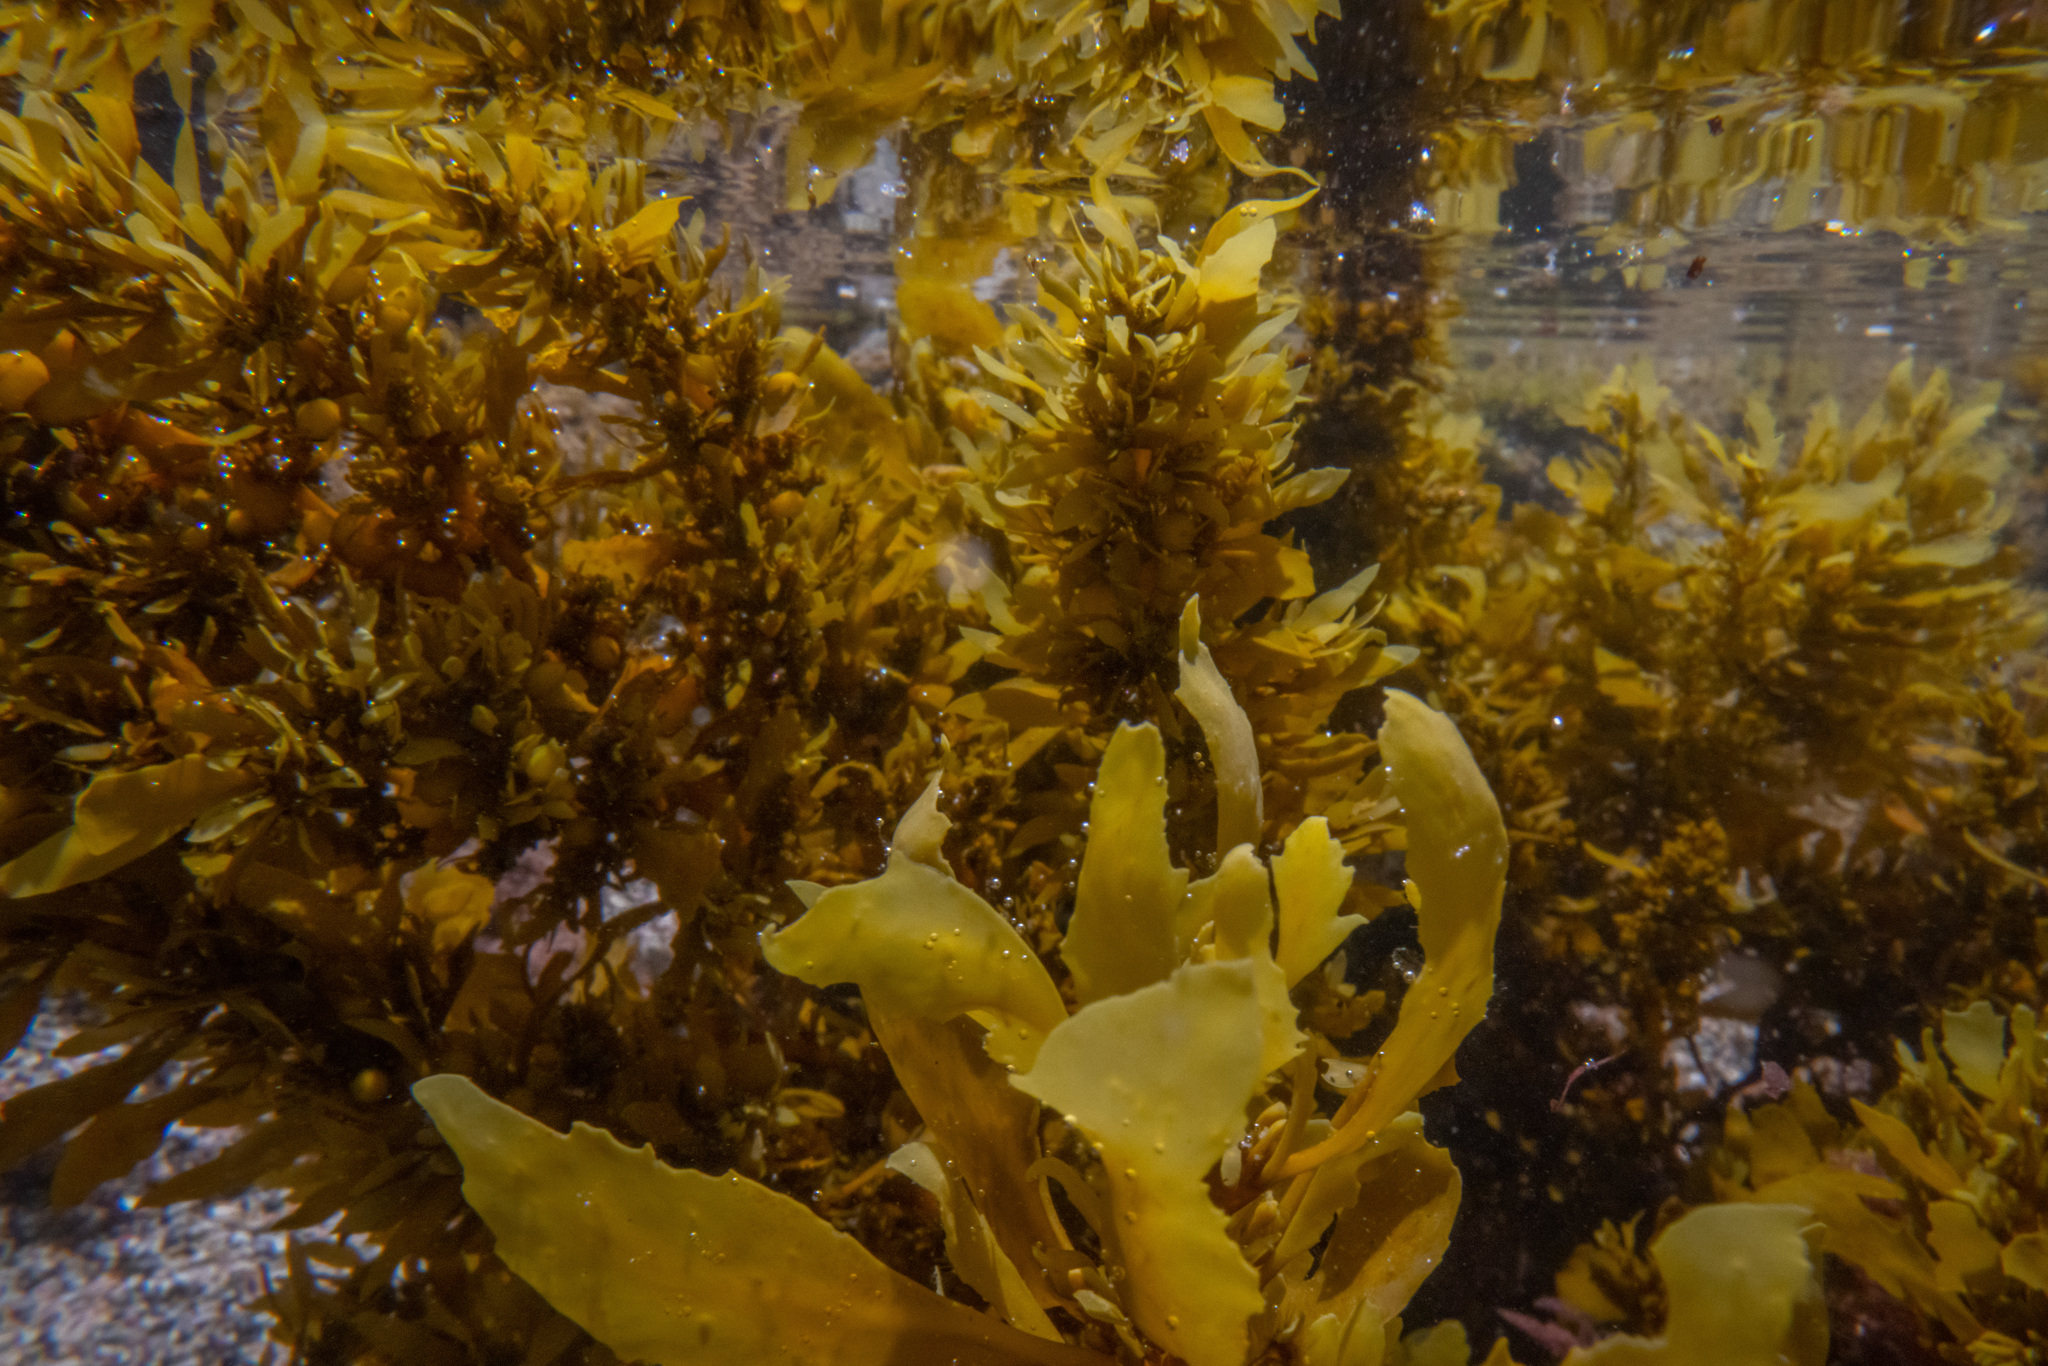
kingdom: Chromista
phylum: Ochrophyta
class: Phaeophyceae
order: Fucales
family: Sargassaceae
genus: Sargassum
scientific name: Sargassum sinclairii
